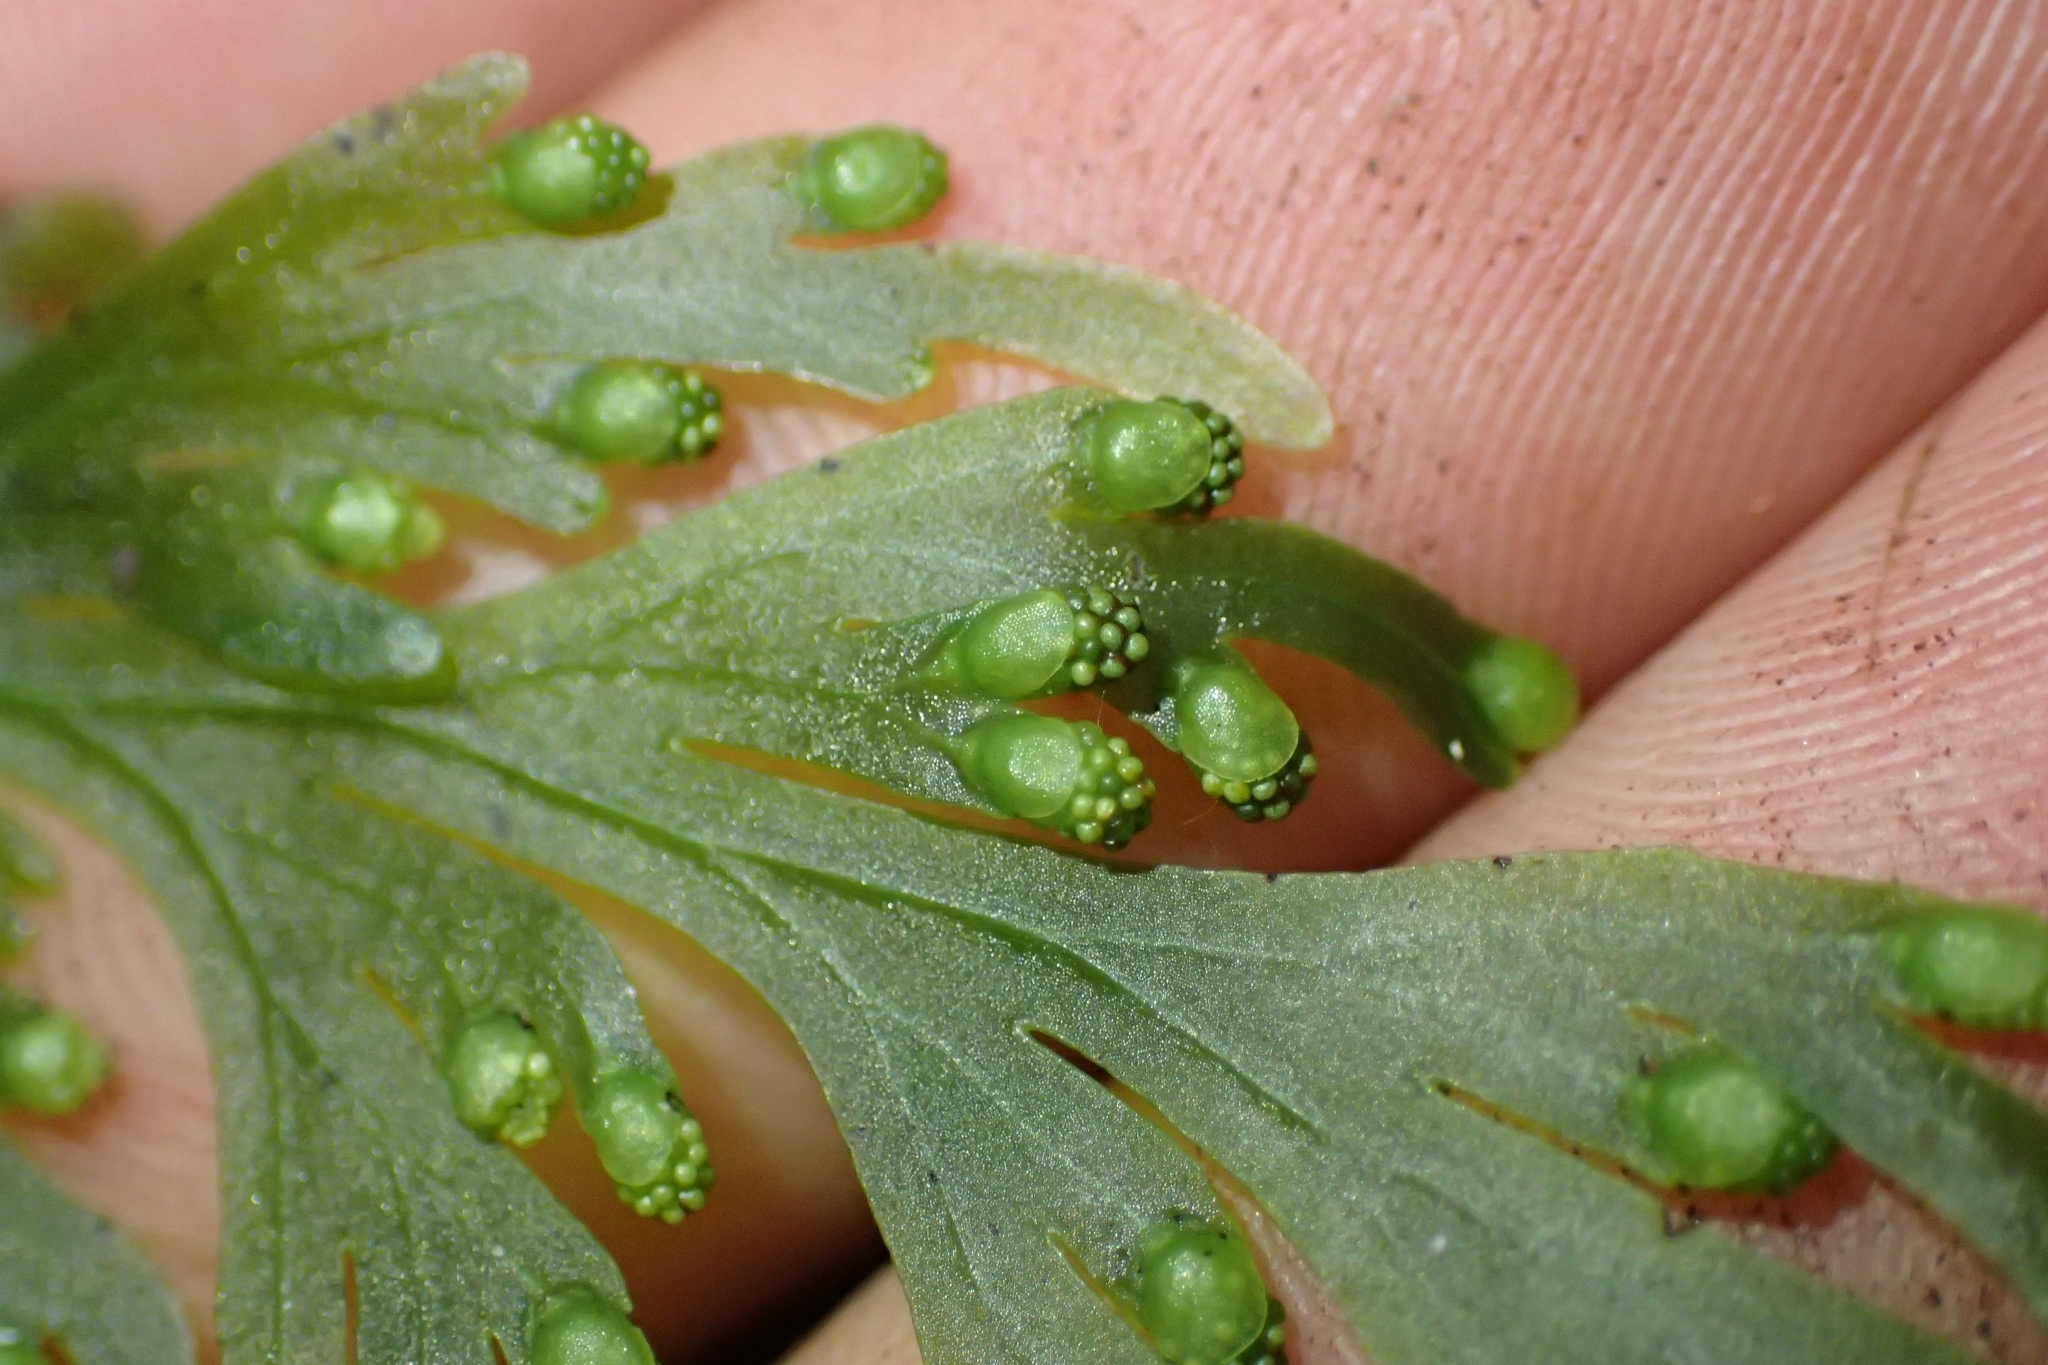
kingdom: Plantae
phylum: Tracheophyta
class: Polypodiopsida
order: Hymenophyllales
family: Hymenophyllaceae
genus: Hymenophyllum
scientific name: Hymenophyllum dilatatum
